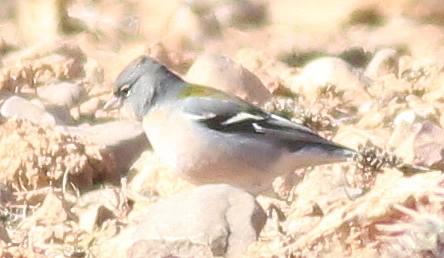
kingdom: Animalia
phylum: Chordata
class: Aves
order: Passeriformes
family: Fringillidae
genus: Fringilla
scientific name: Fringilla spodiogenys
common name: African chaffinch
